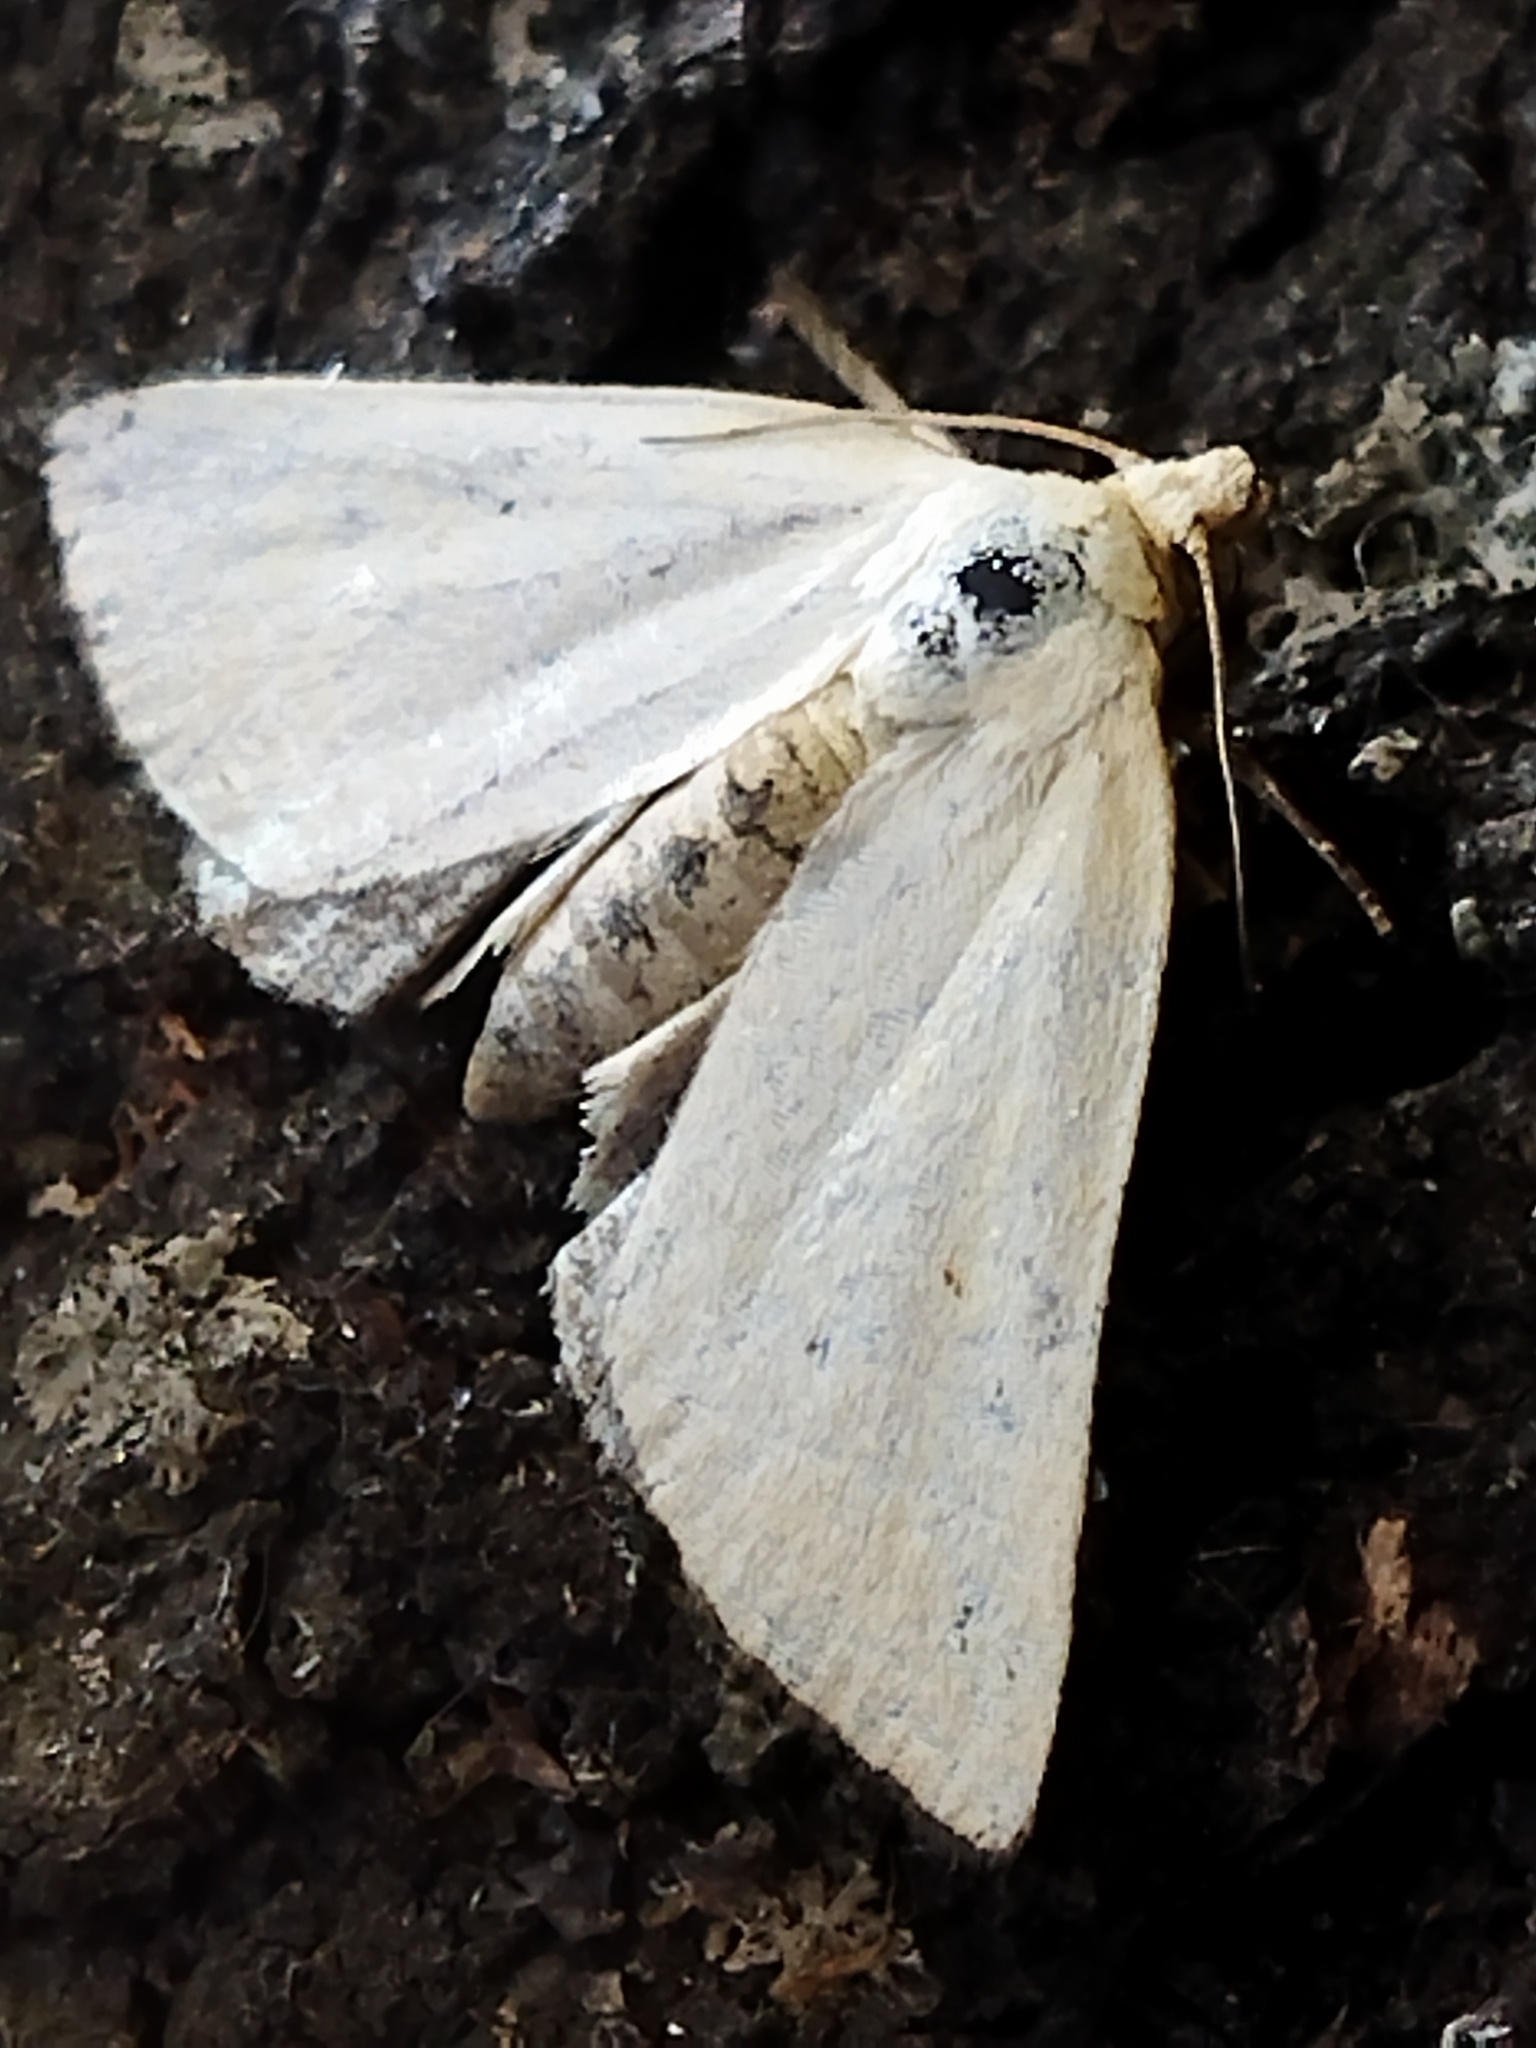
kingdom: Animalia
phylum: Arthropoda
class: Insecta
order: Lepidoptera
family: Noctuidae
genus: Aegle
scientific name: Aegle kaekeritziana
